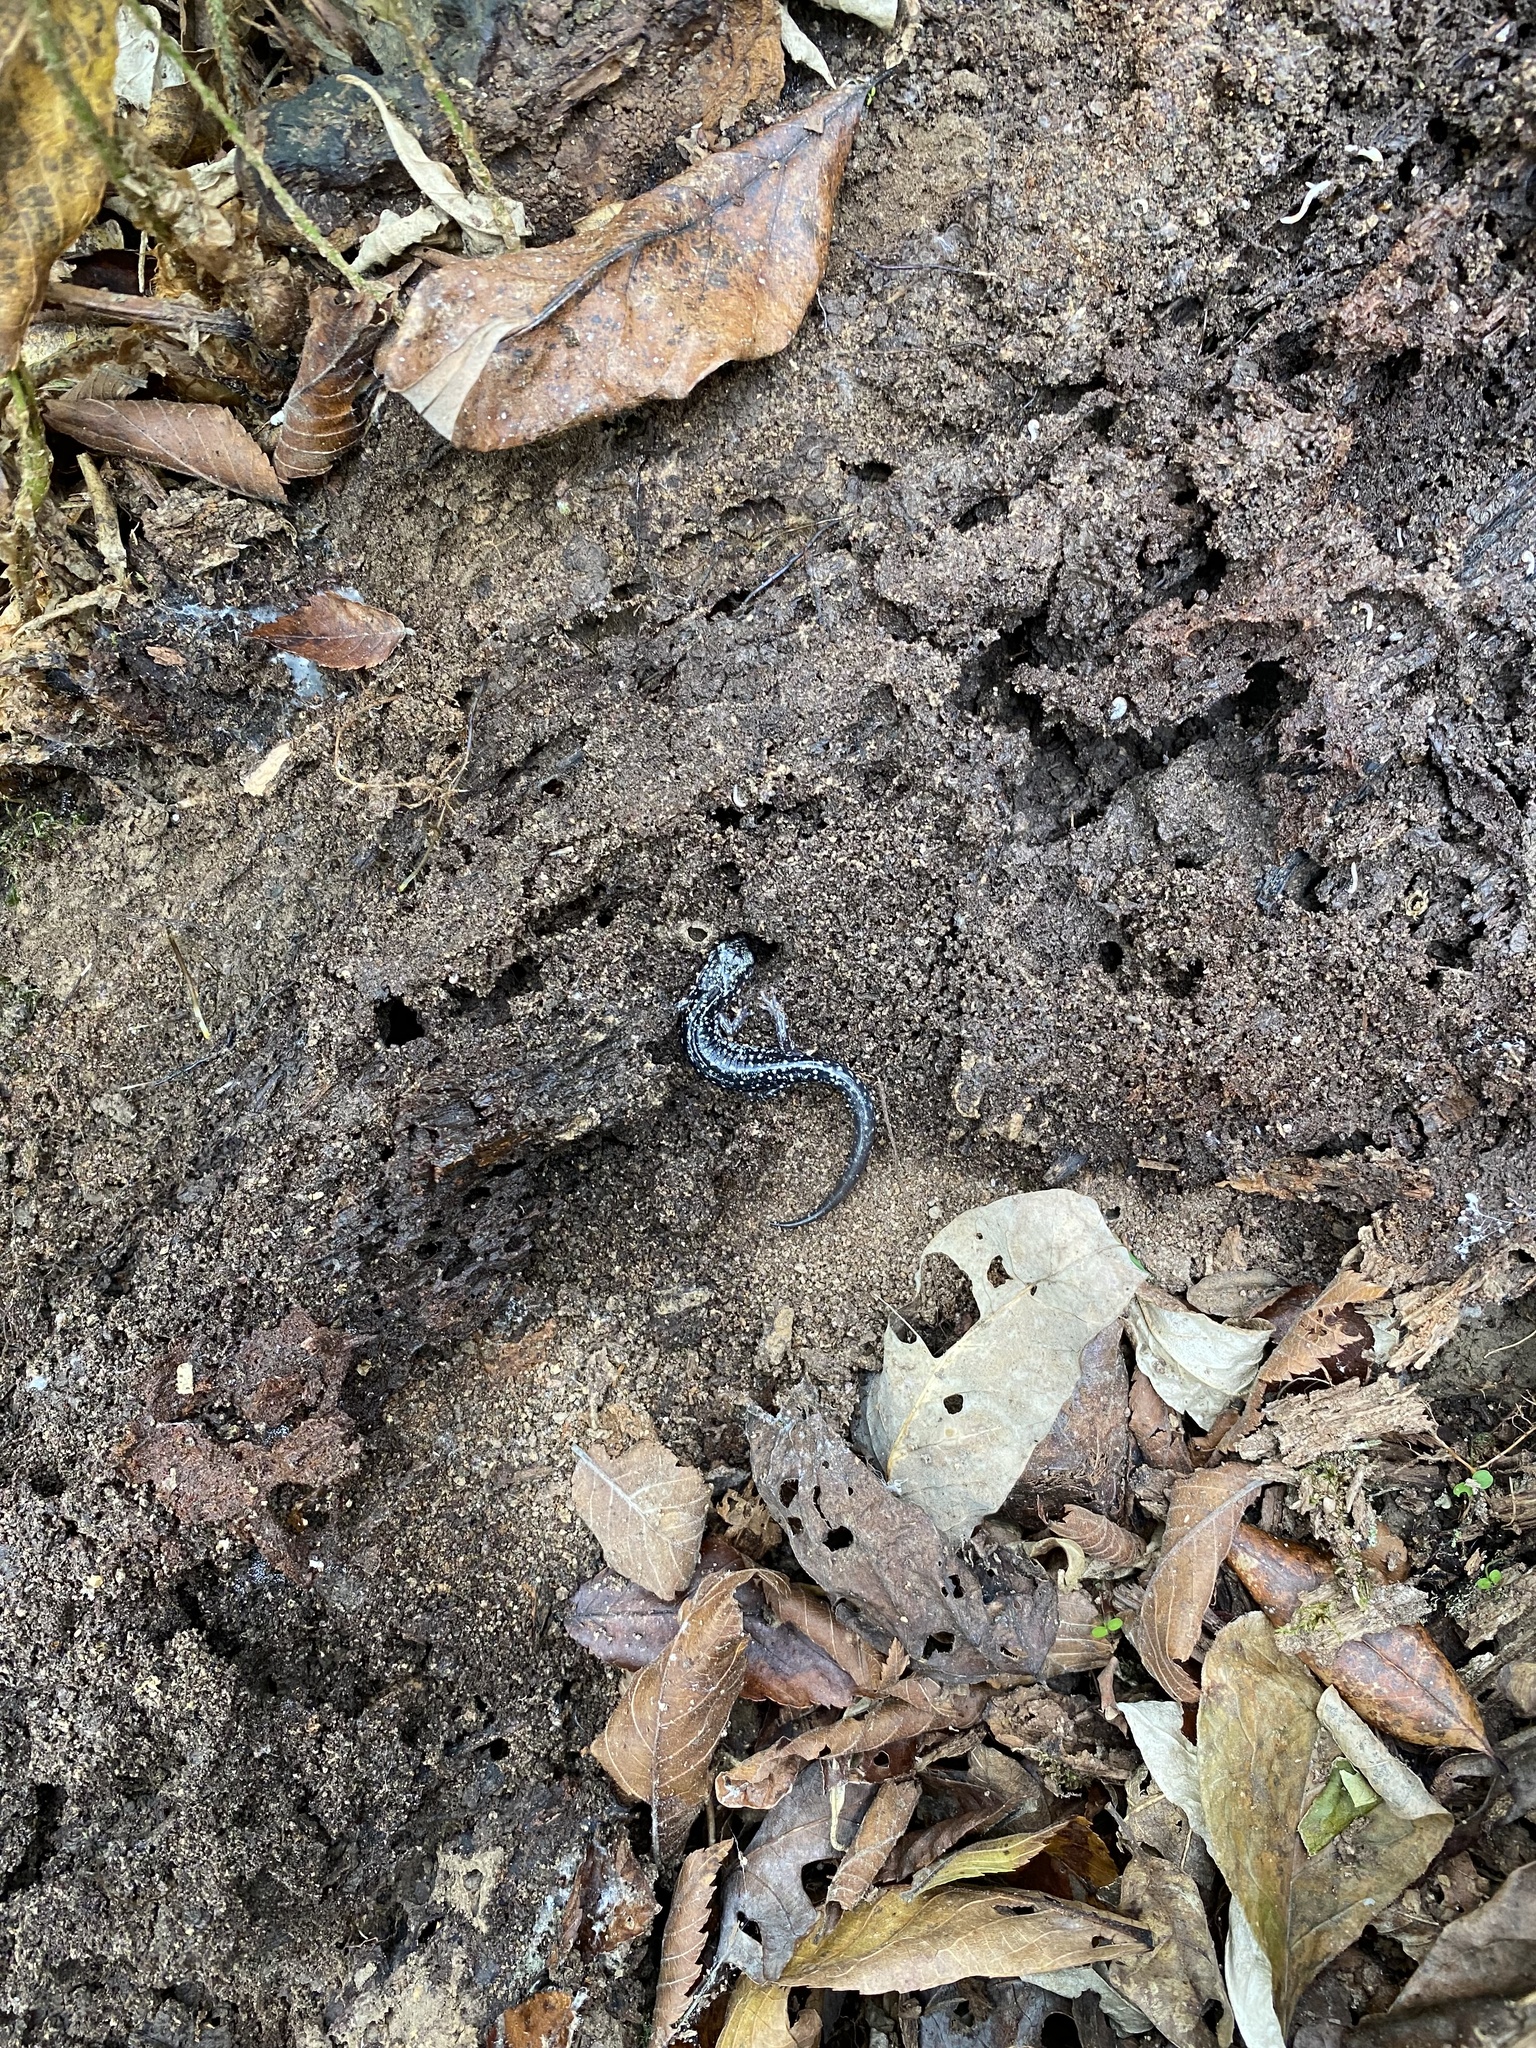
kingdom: Animalia
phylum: Chordata
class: Amphibia
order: Caudata
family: Plethodontidae
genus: Plethodon
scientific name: Plethodon glutinosus
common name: Northern slimy salamander
